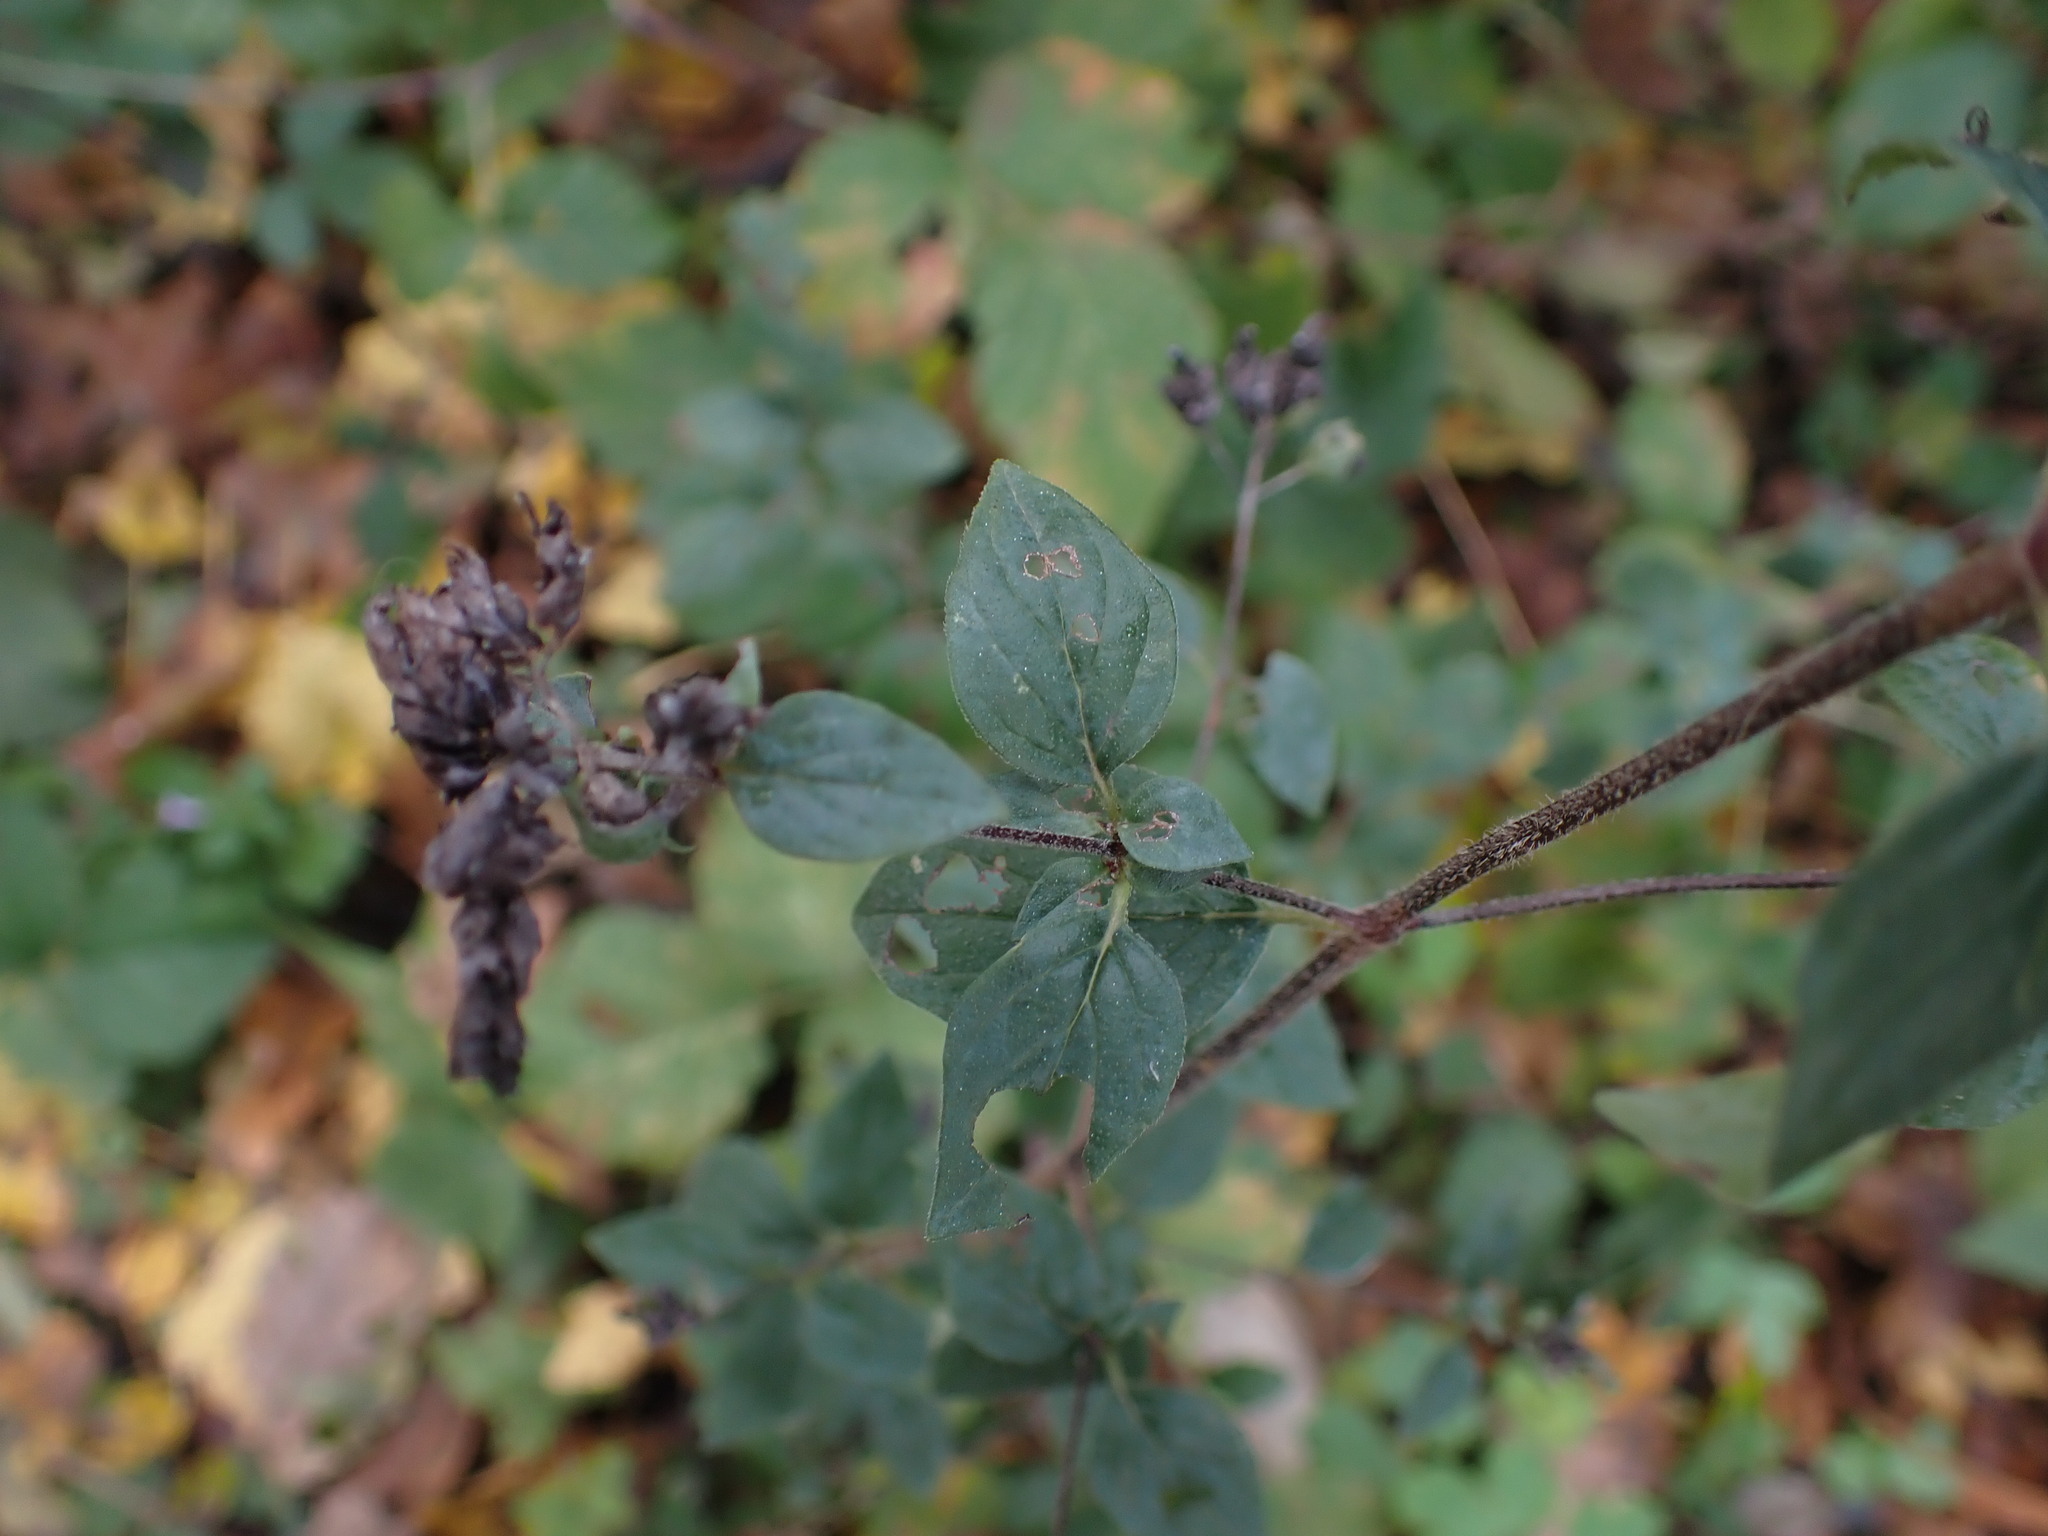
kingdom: Plantae
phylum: Tracheophyta
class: Magnoliopsida
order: Lamiales
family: Lamiaceae
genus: Origanum
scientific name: Origanum vulgare
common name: Wild marjoram
